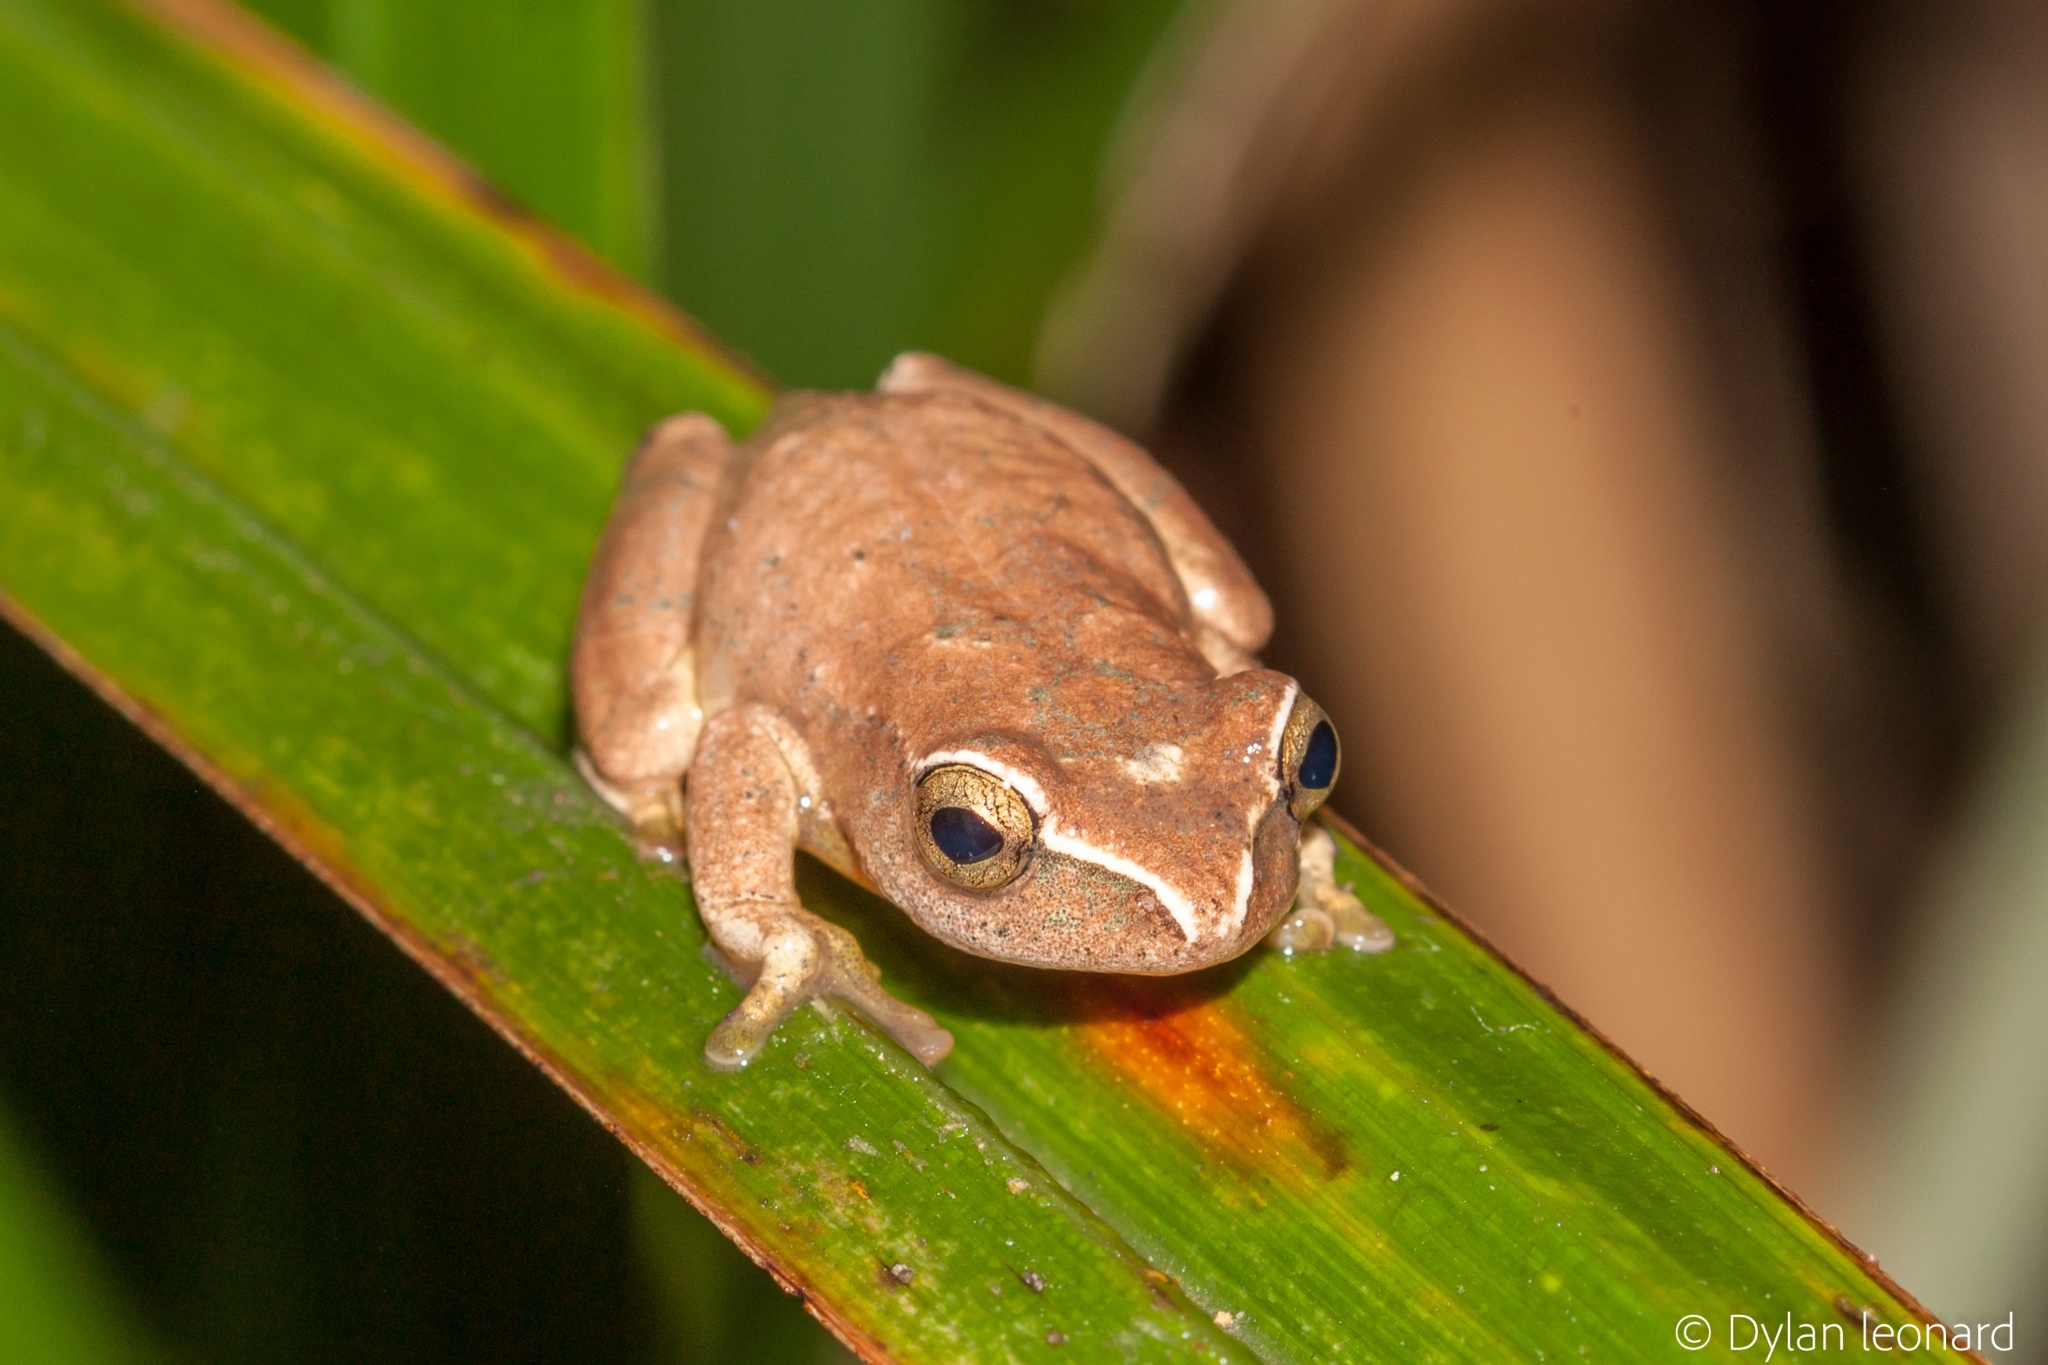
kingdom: Animalia
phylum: Chordata
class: Amphibia
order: Anura
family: Hyperoliidae
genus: Hyperolius
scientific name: Hyperolius tuberilinguis
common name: Tinker reed frog
